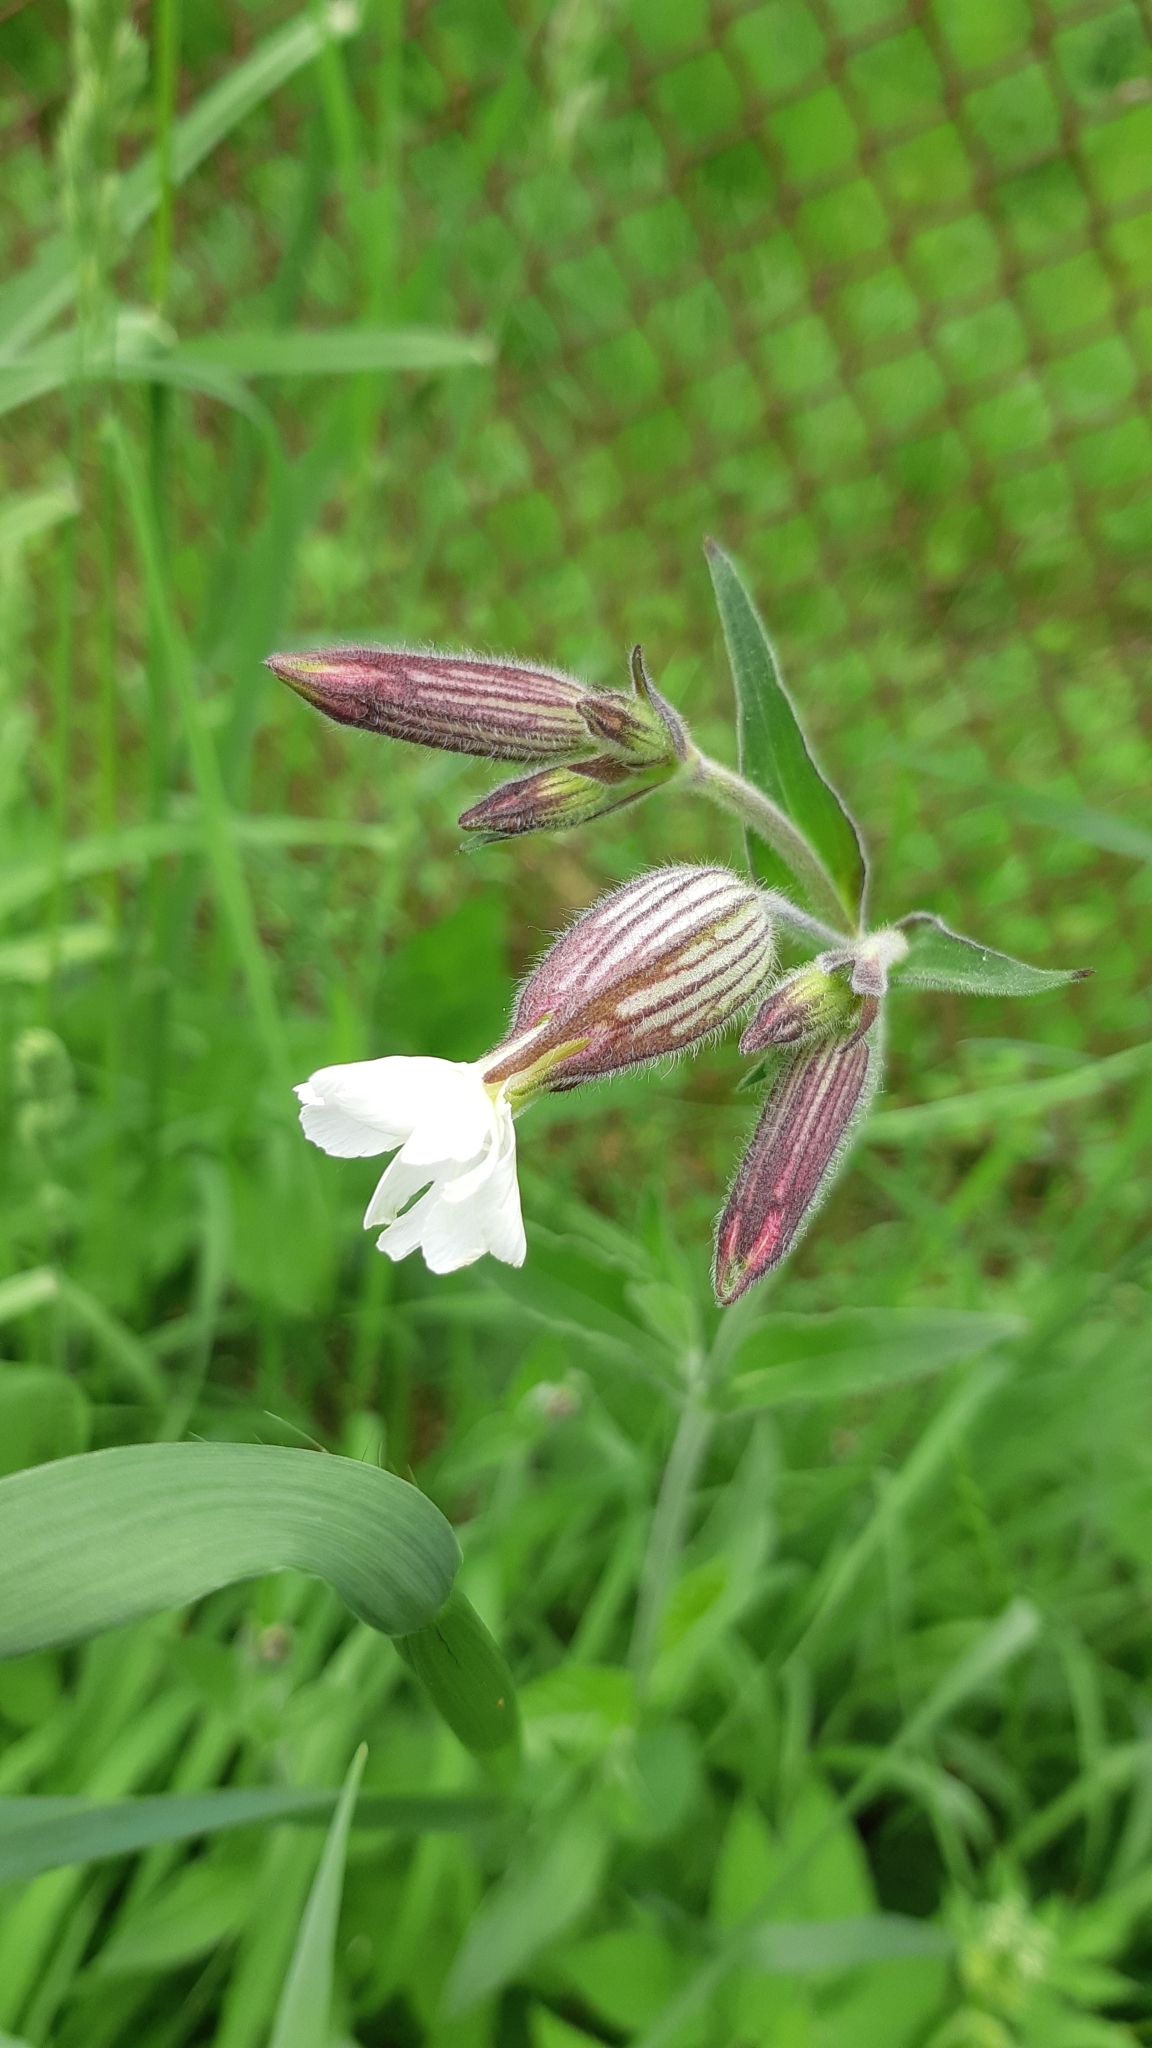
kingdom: Plantae
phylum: Tracheophyta
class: Magnoliopsida
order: Caryophyllales
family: Caryophyllaceae
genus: Silene
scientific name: Silene latifolia
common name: White campion
